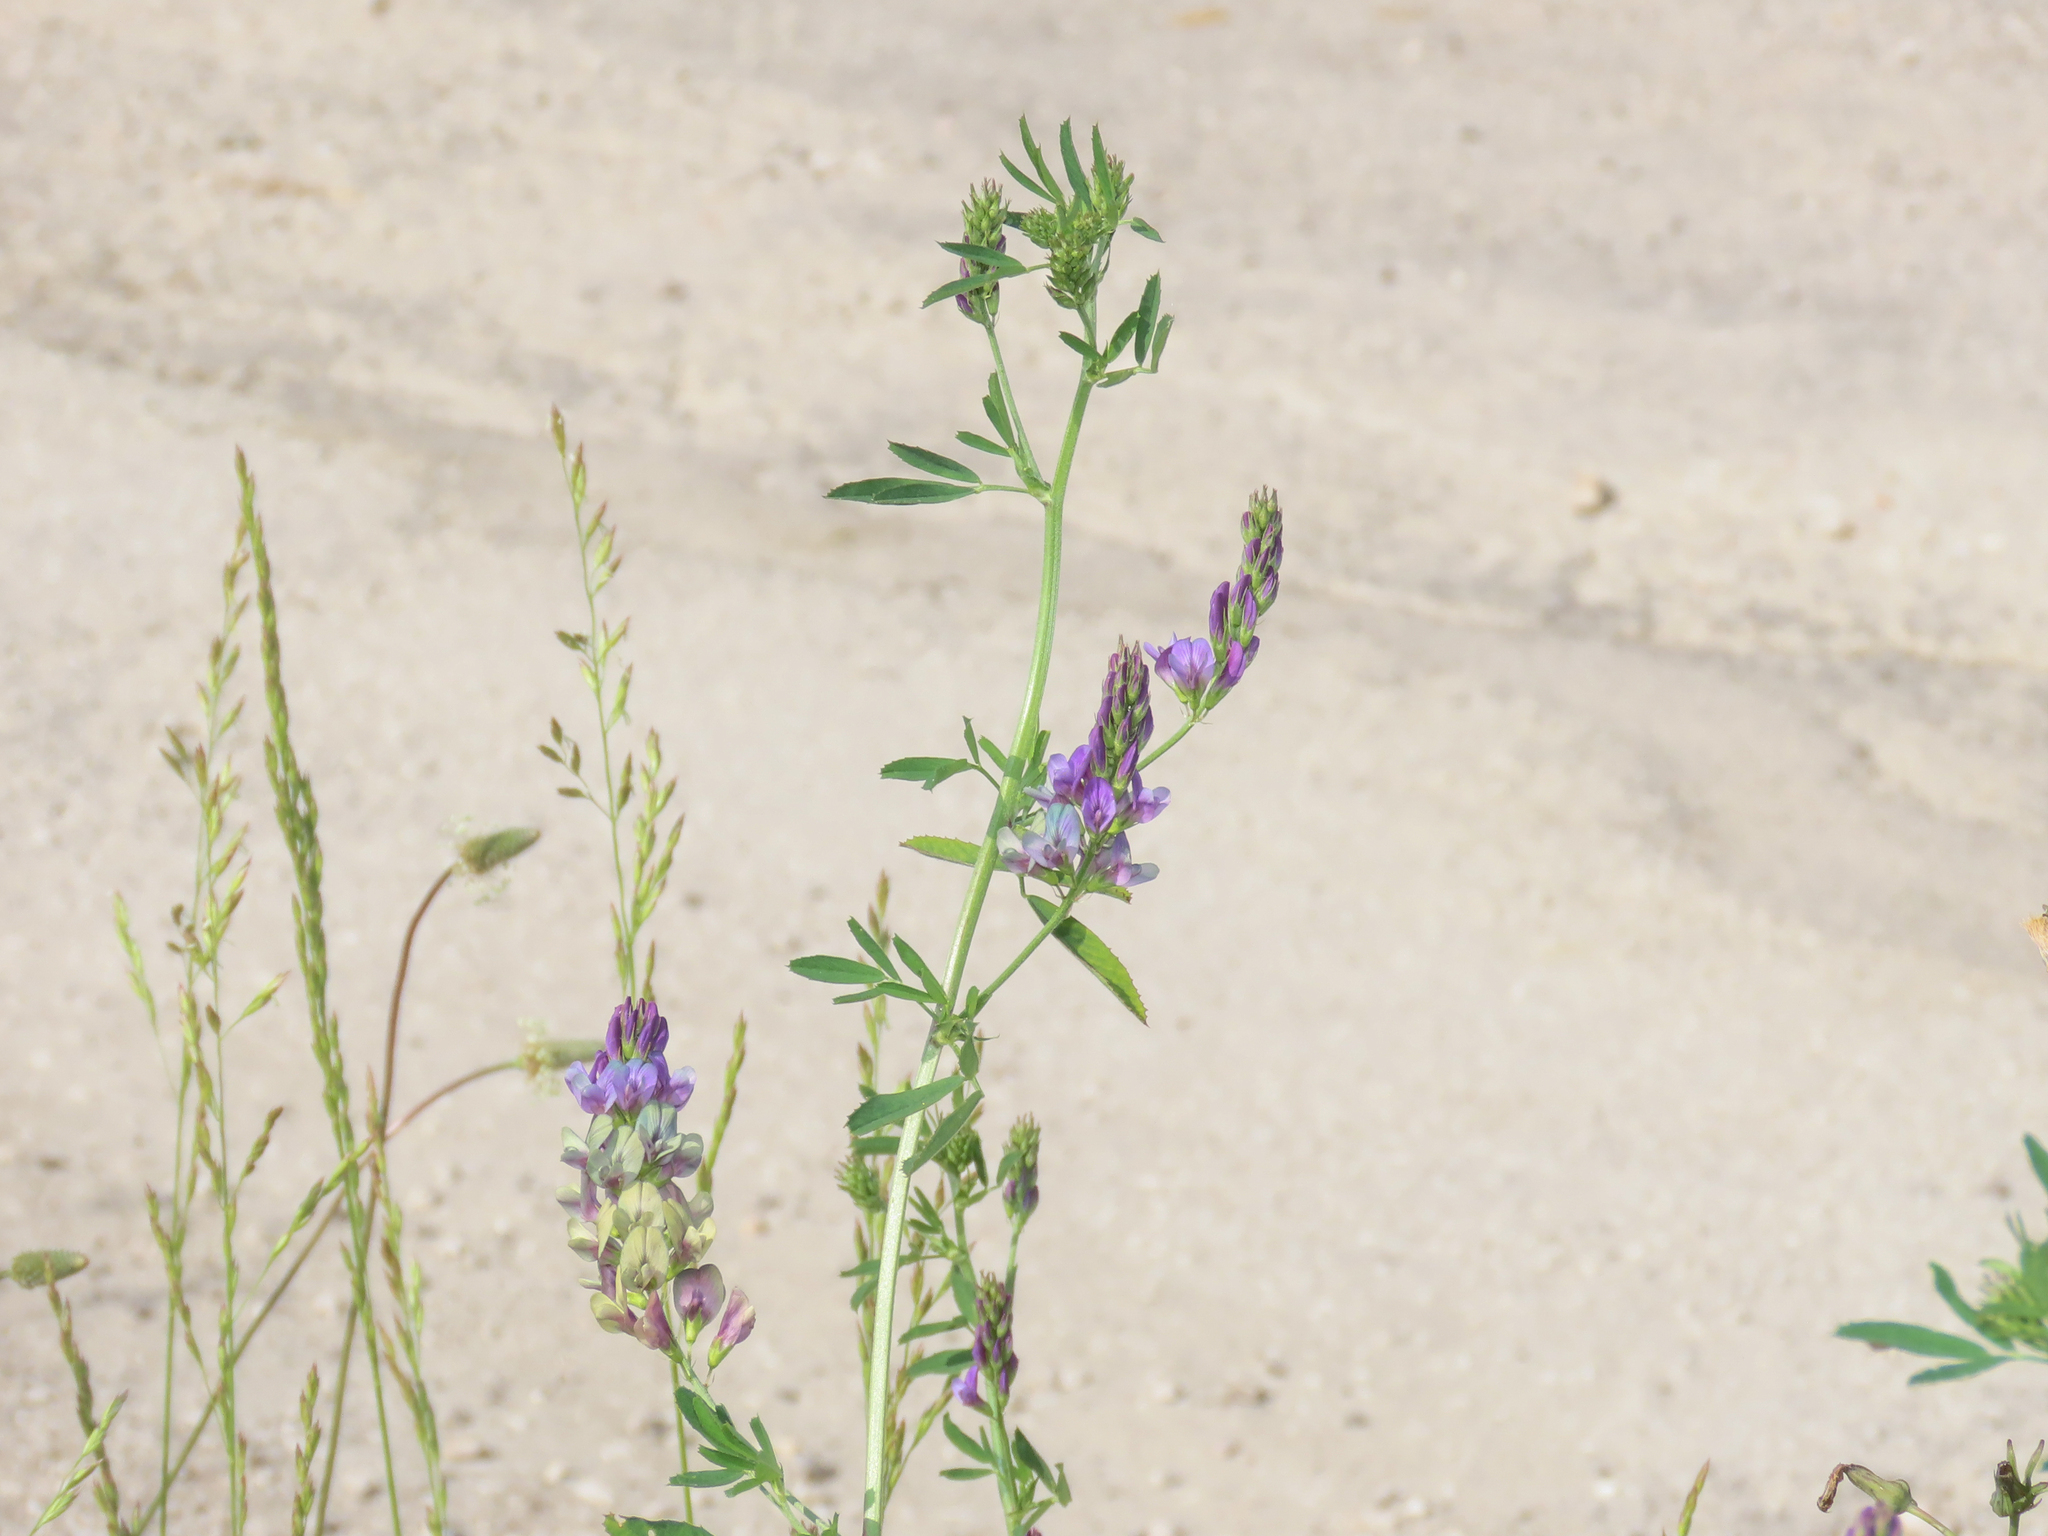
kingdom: Plantae
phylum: Tracheophyta
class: Magnoliopsida
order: Fabales
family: Fabaceae
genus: Medicago
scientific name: Medicago sativa
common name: Alfalfa
